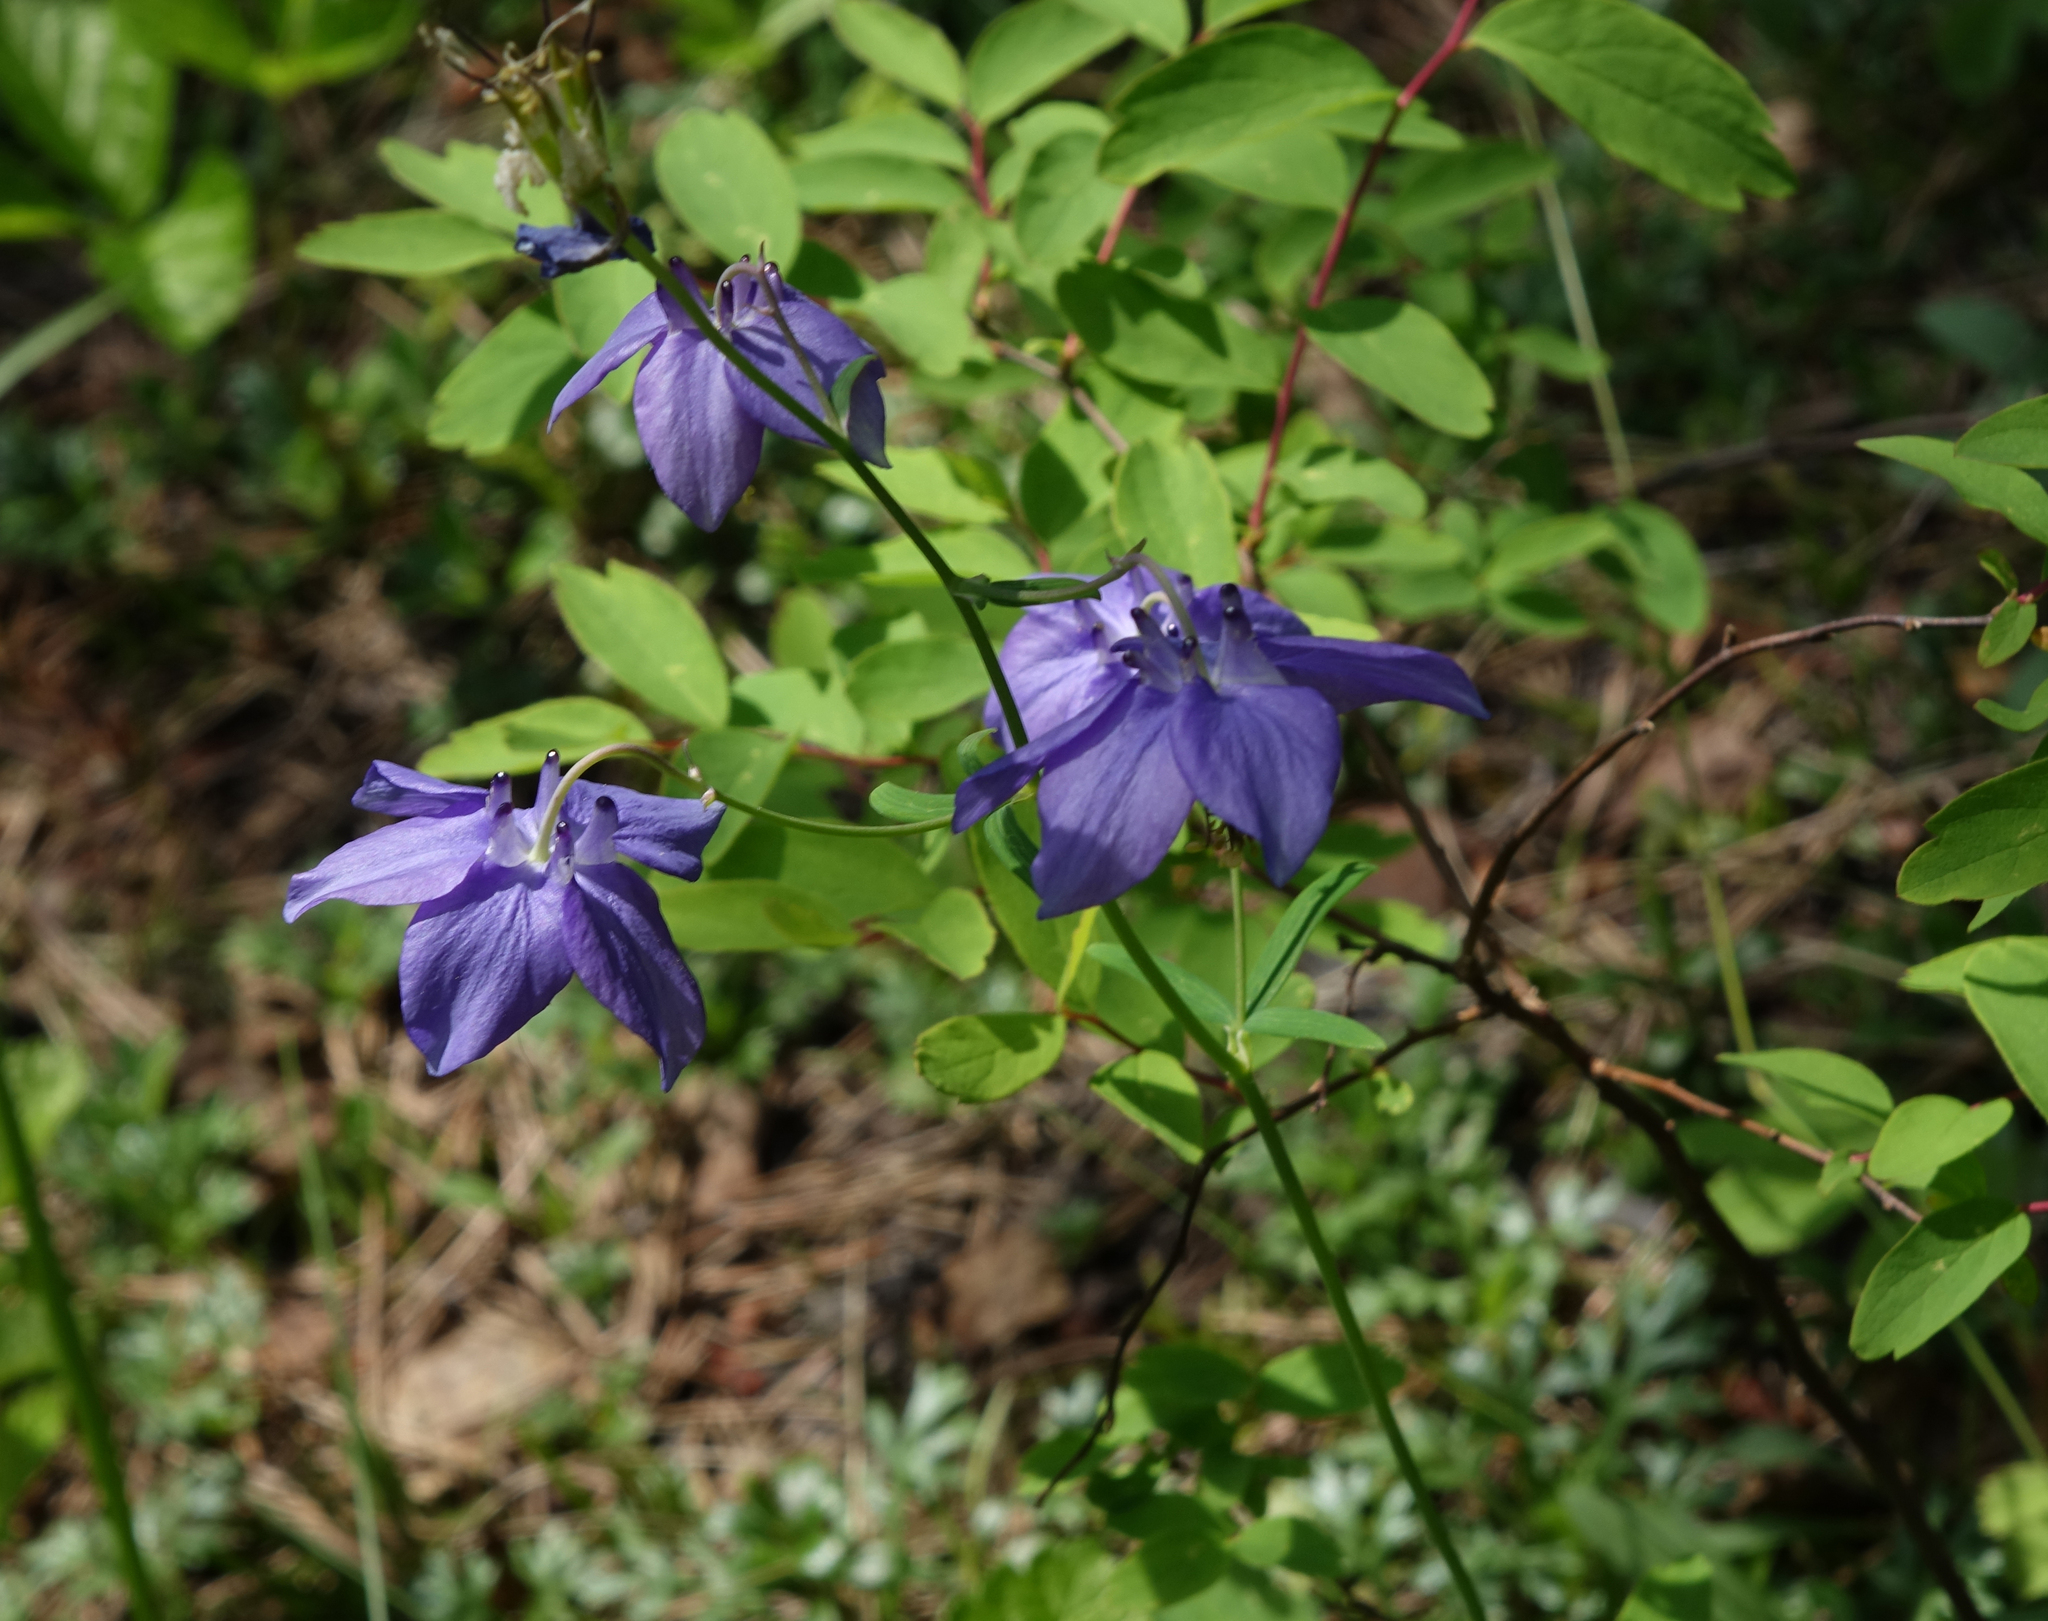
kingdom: Plantae
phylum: Tracheophyta
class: Magnoliopsida
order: Ranunculales
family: Ranunculaceae
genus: Aquilegia
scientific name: Aquilegia parviflora
